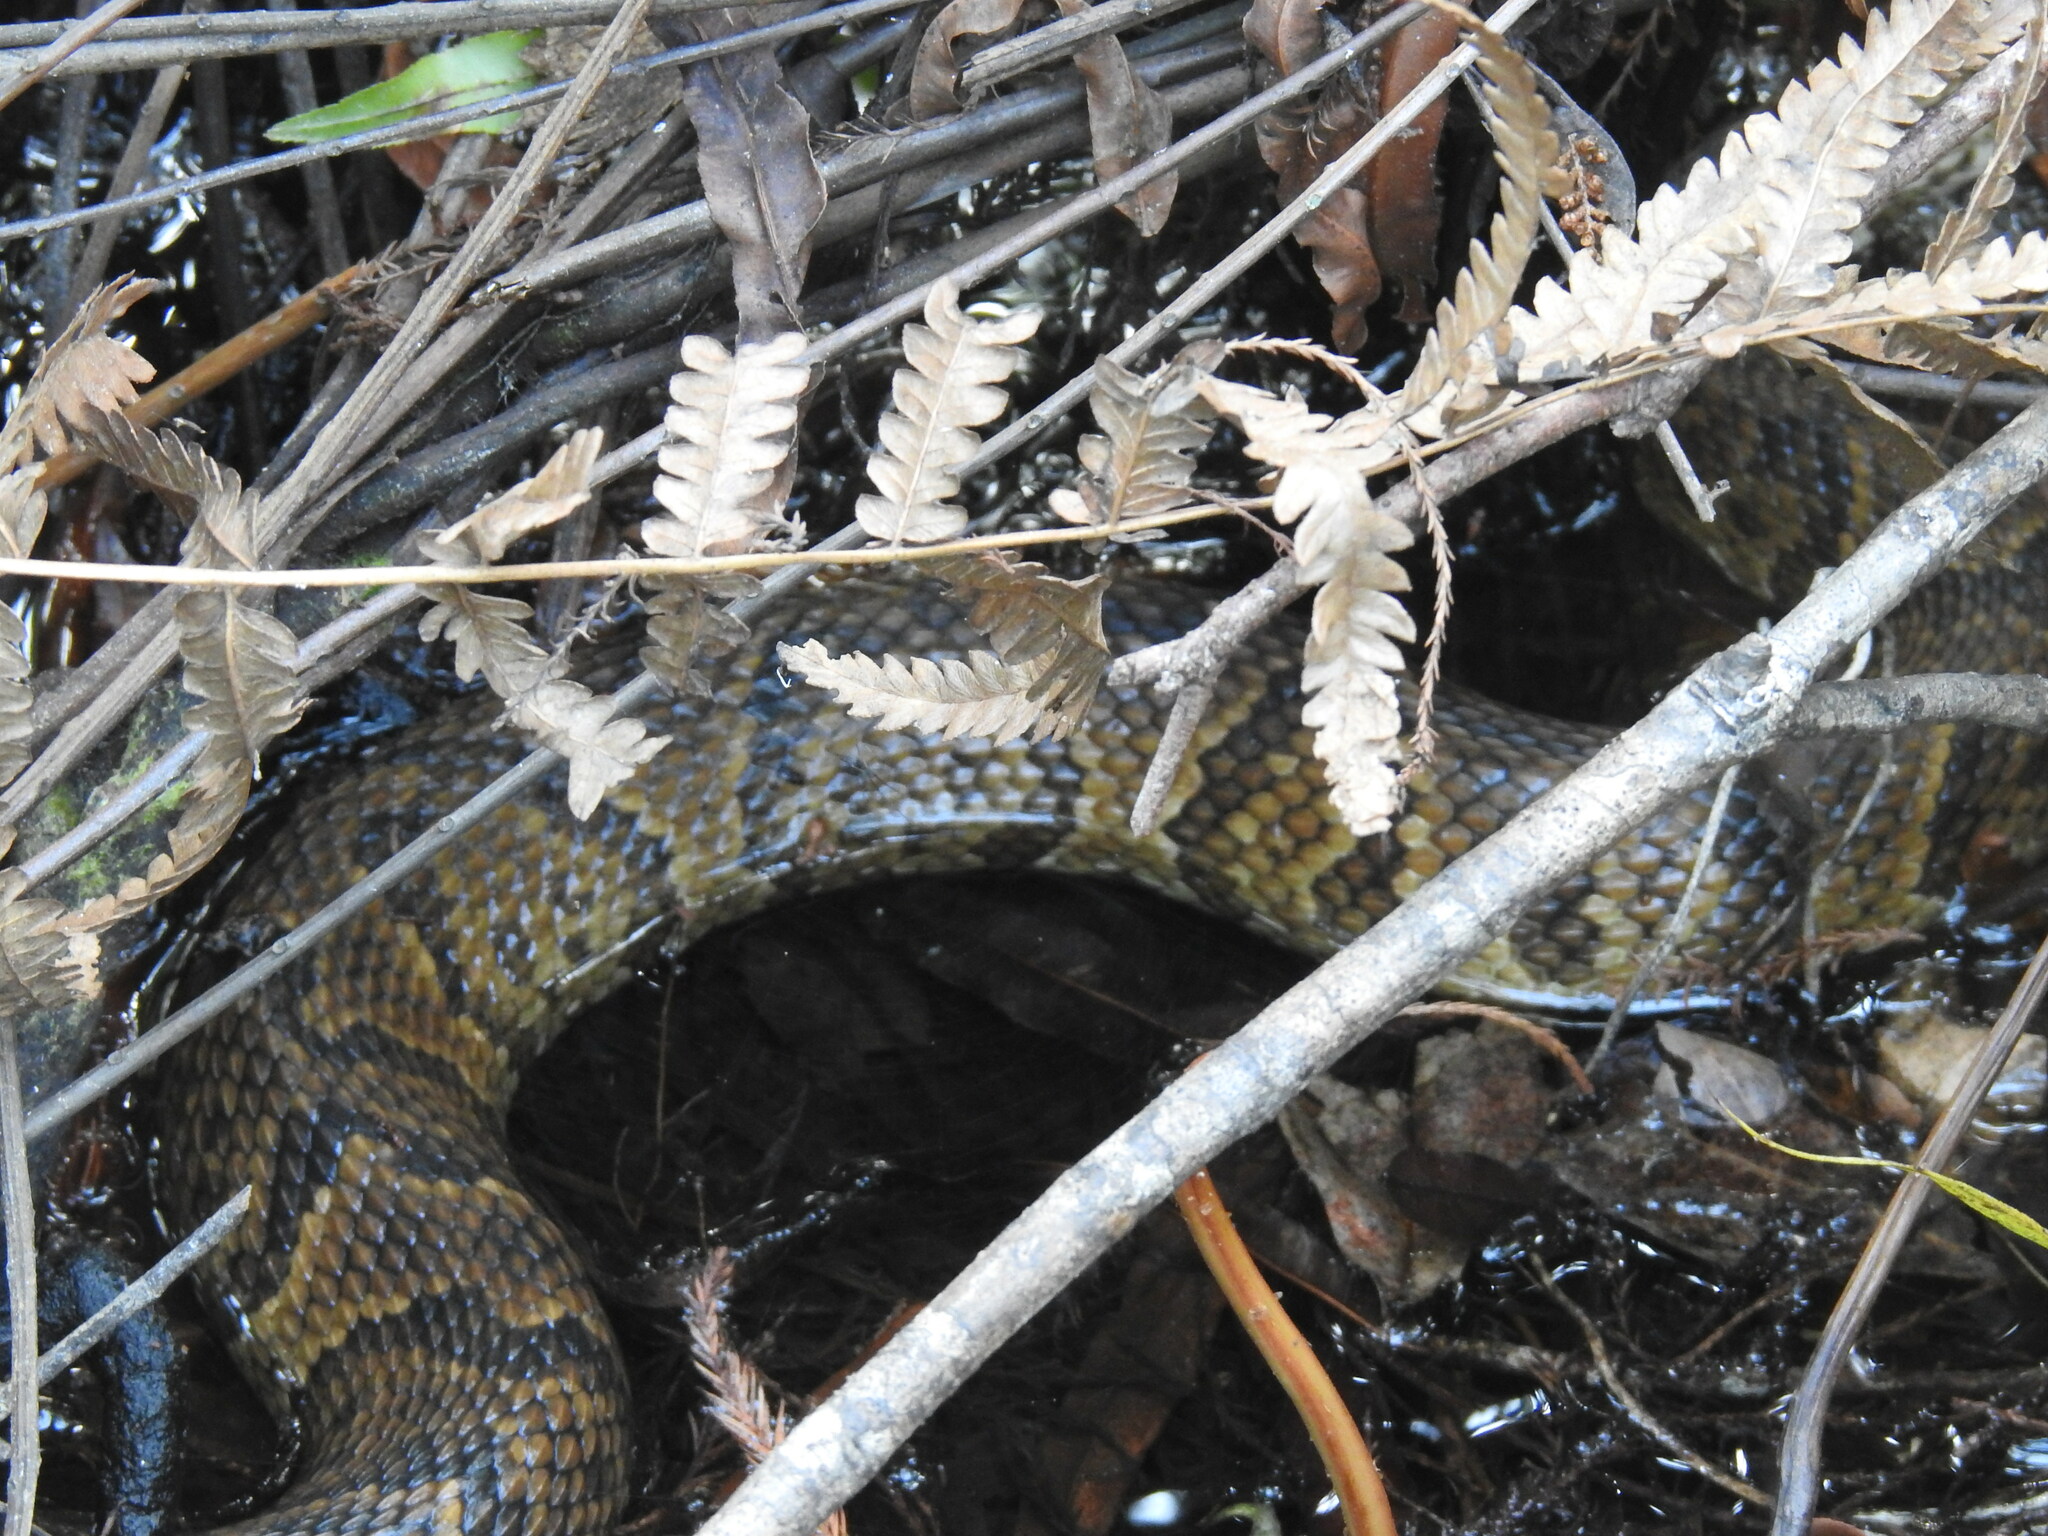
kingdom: Animalia
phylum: Chordata
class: Squamata
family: Viperidae
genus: Agkistrodon
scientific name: Agkistrodon conanti
